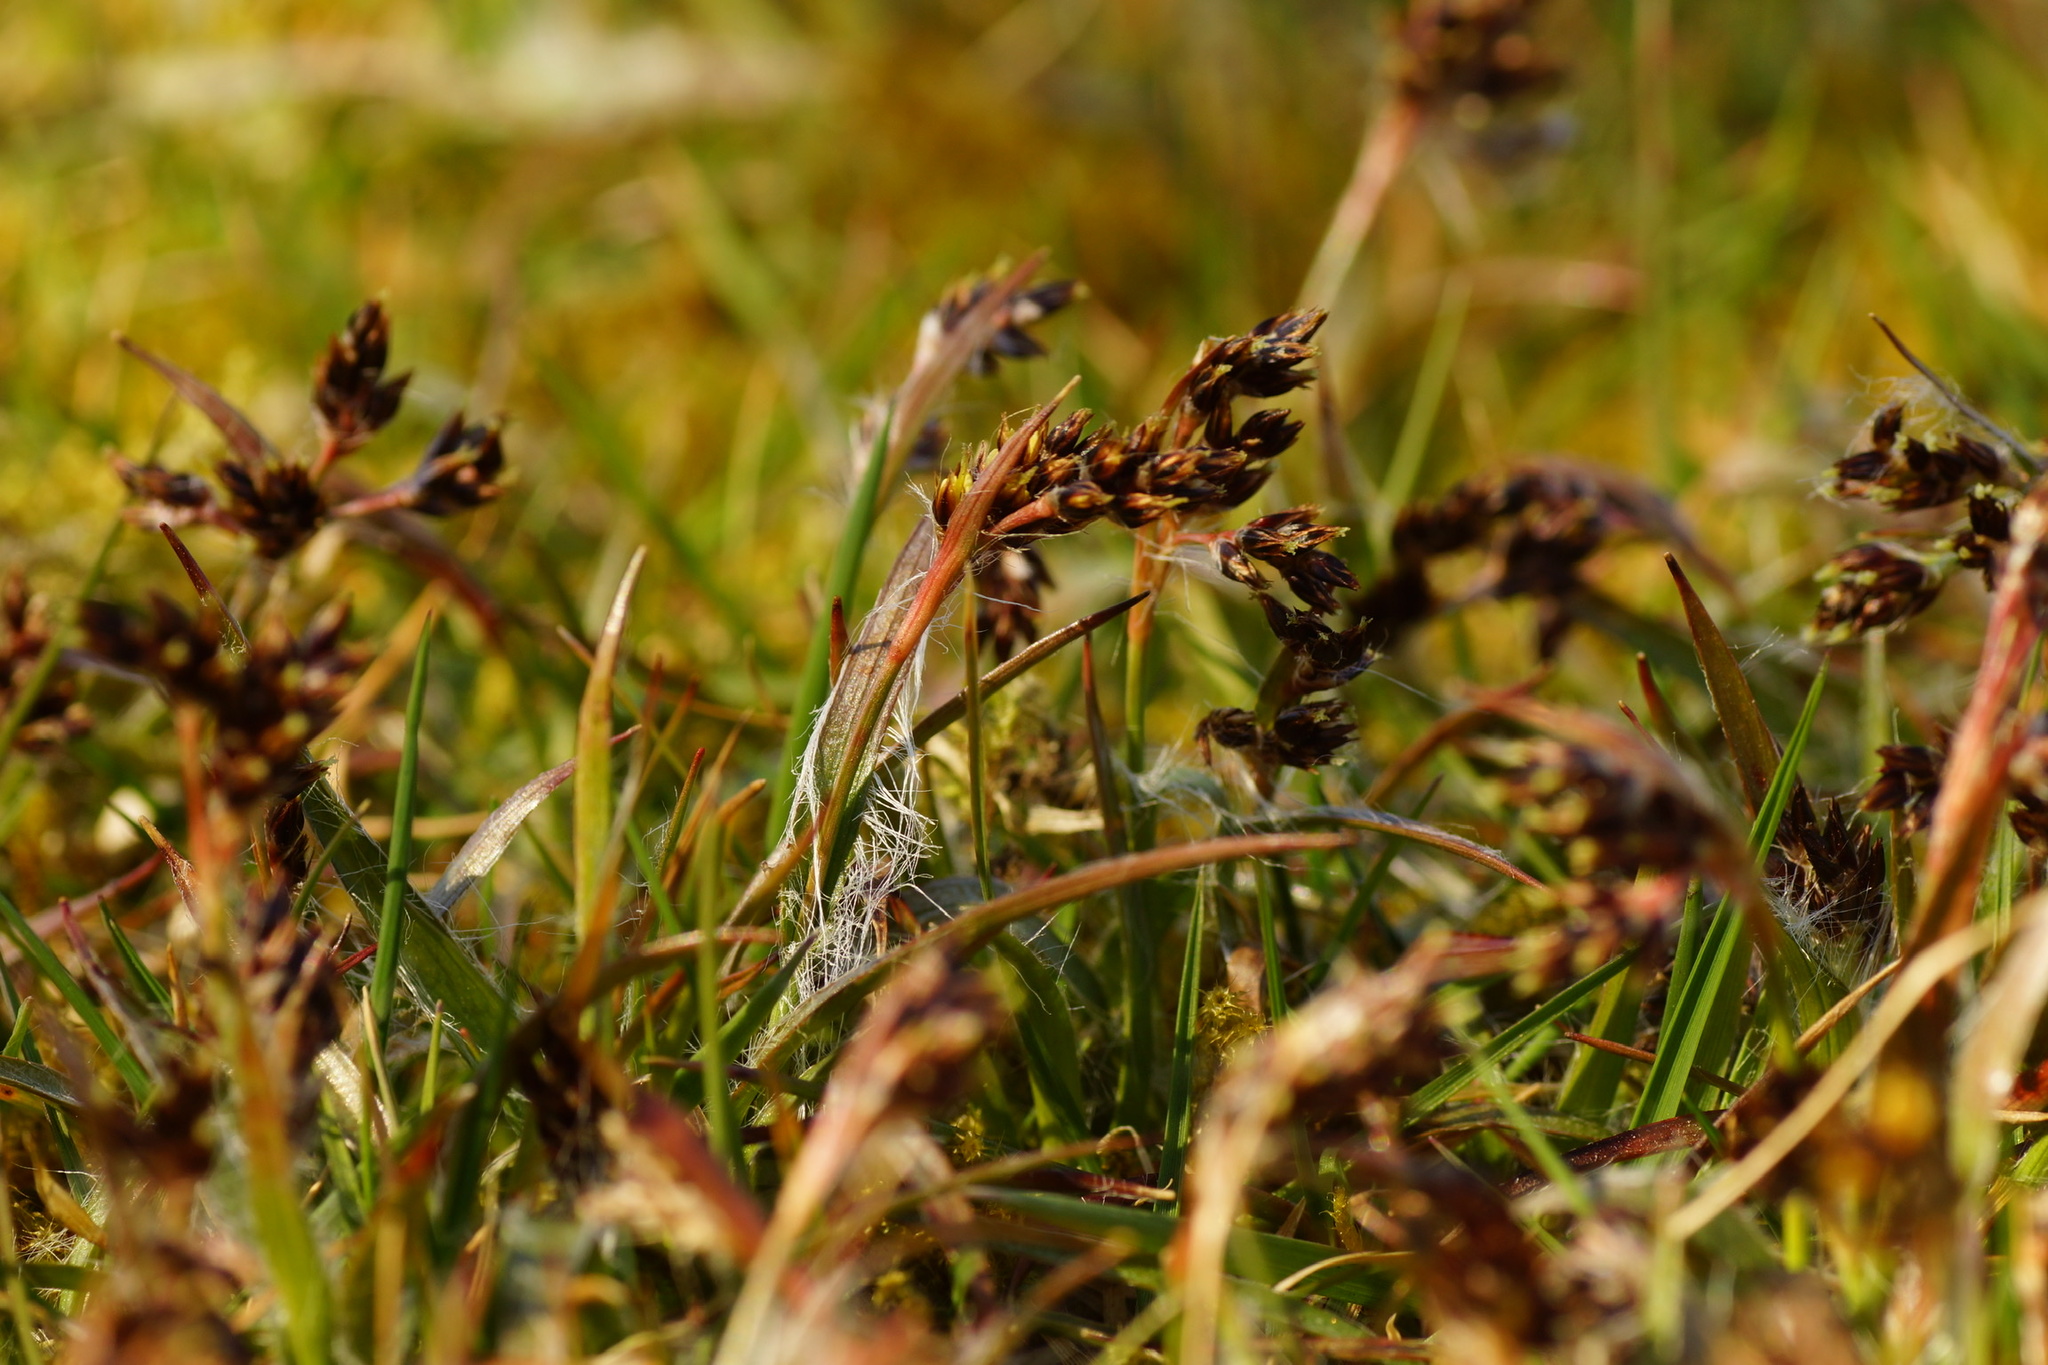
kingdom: Plantae
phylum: Tracheophyta
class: Liliopsida
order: Poales
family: Juncaceae
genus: Luzula
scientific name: Luzula campestris
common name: Field wood-rush
